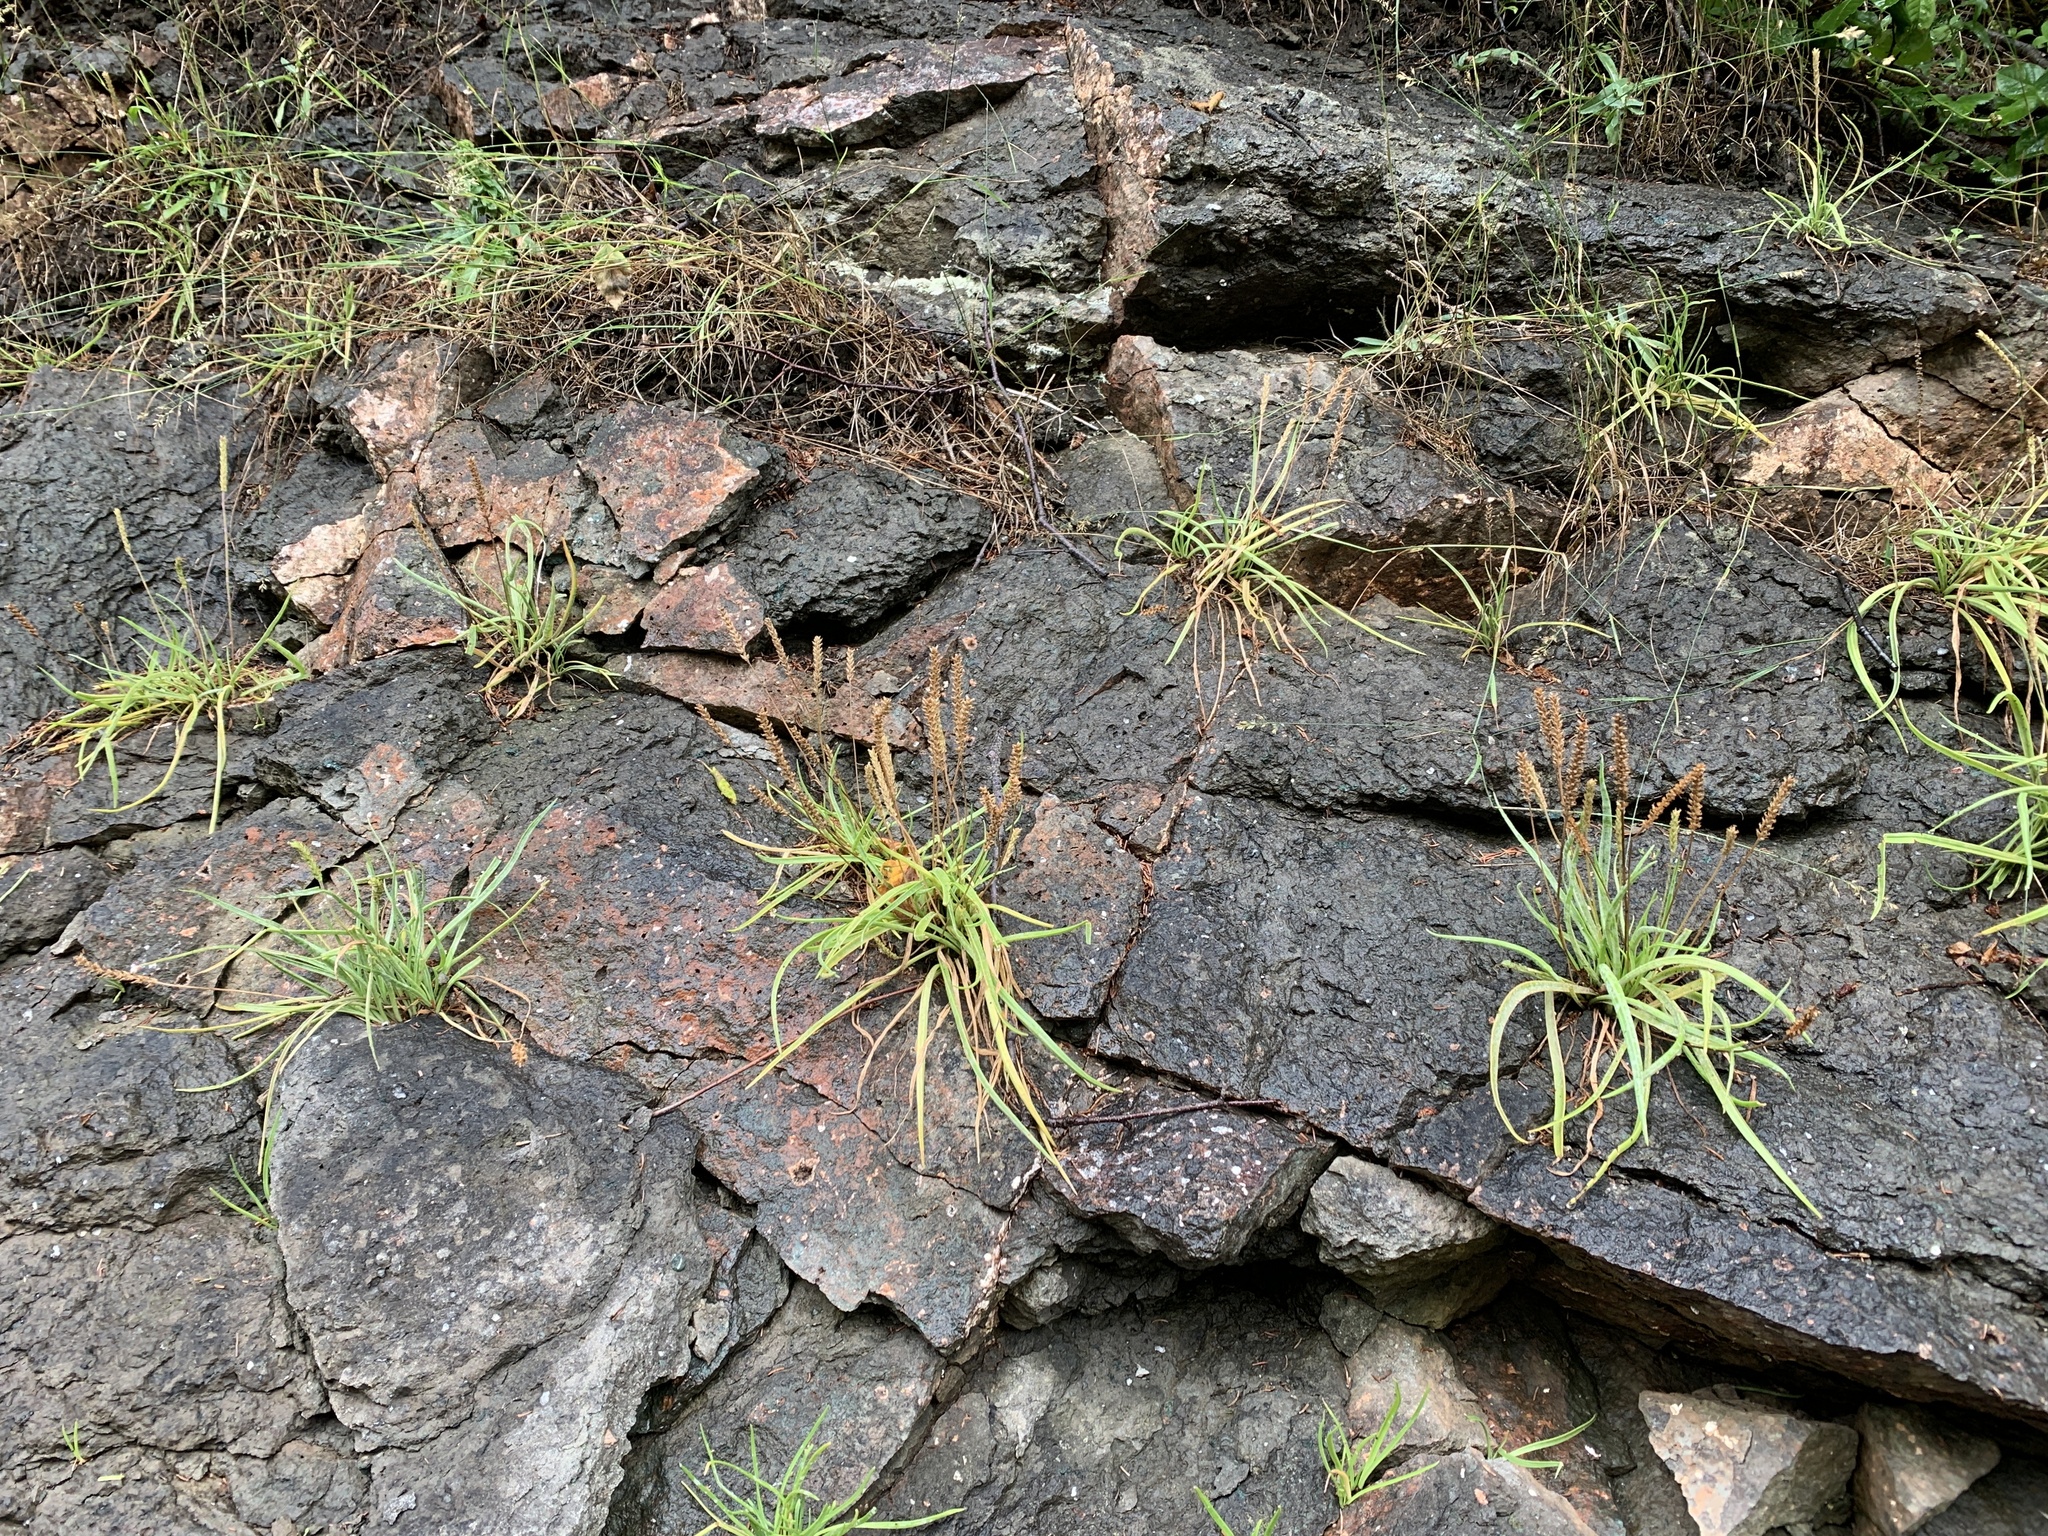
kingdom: Plantae
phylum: Tracheophyta
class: Magnoliopsida
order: Lamiales
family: Plantaginaceae
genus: Plantago
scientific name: Plantago maritima
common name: Sea plantain
